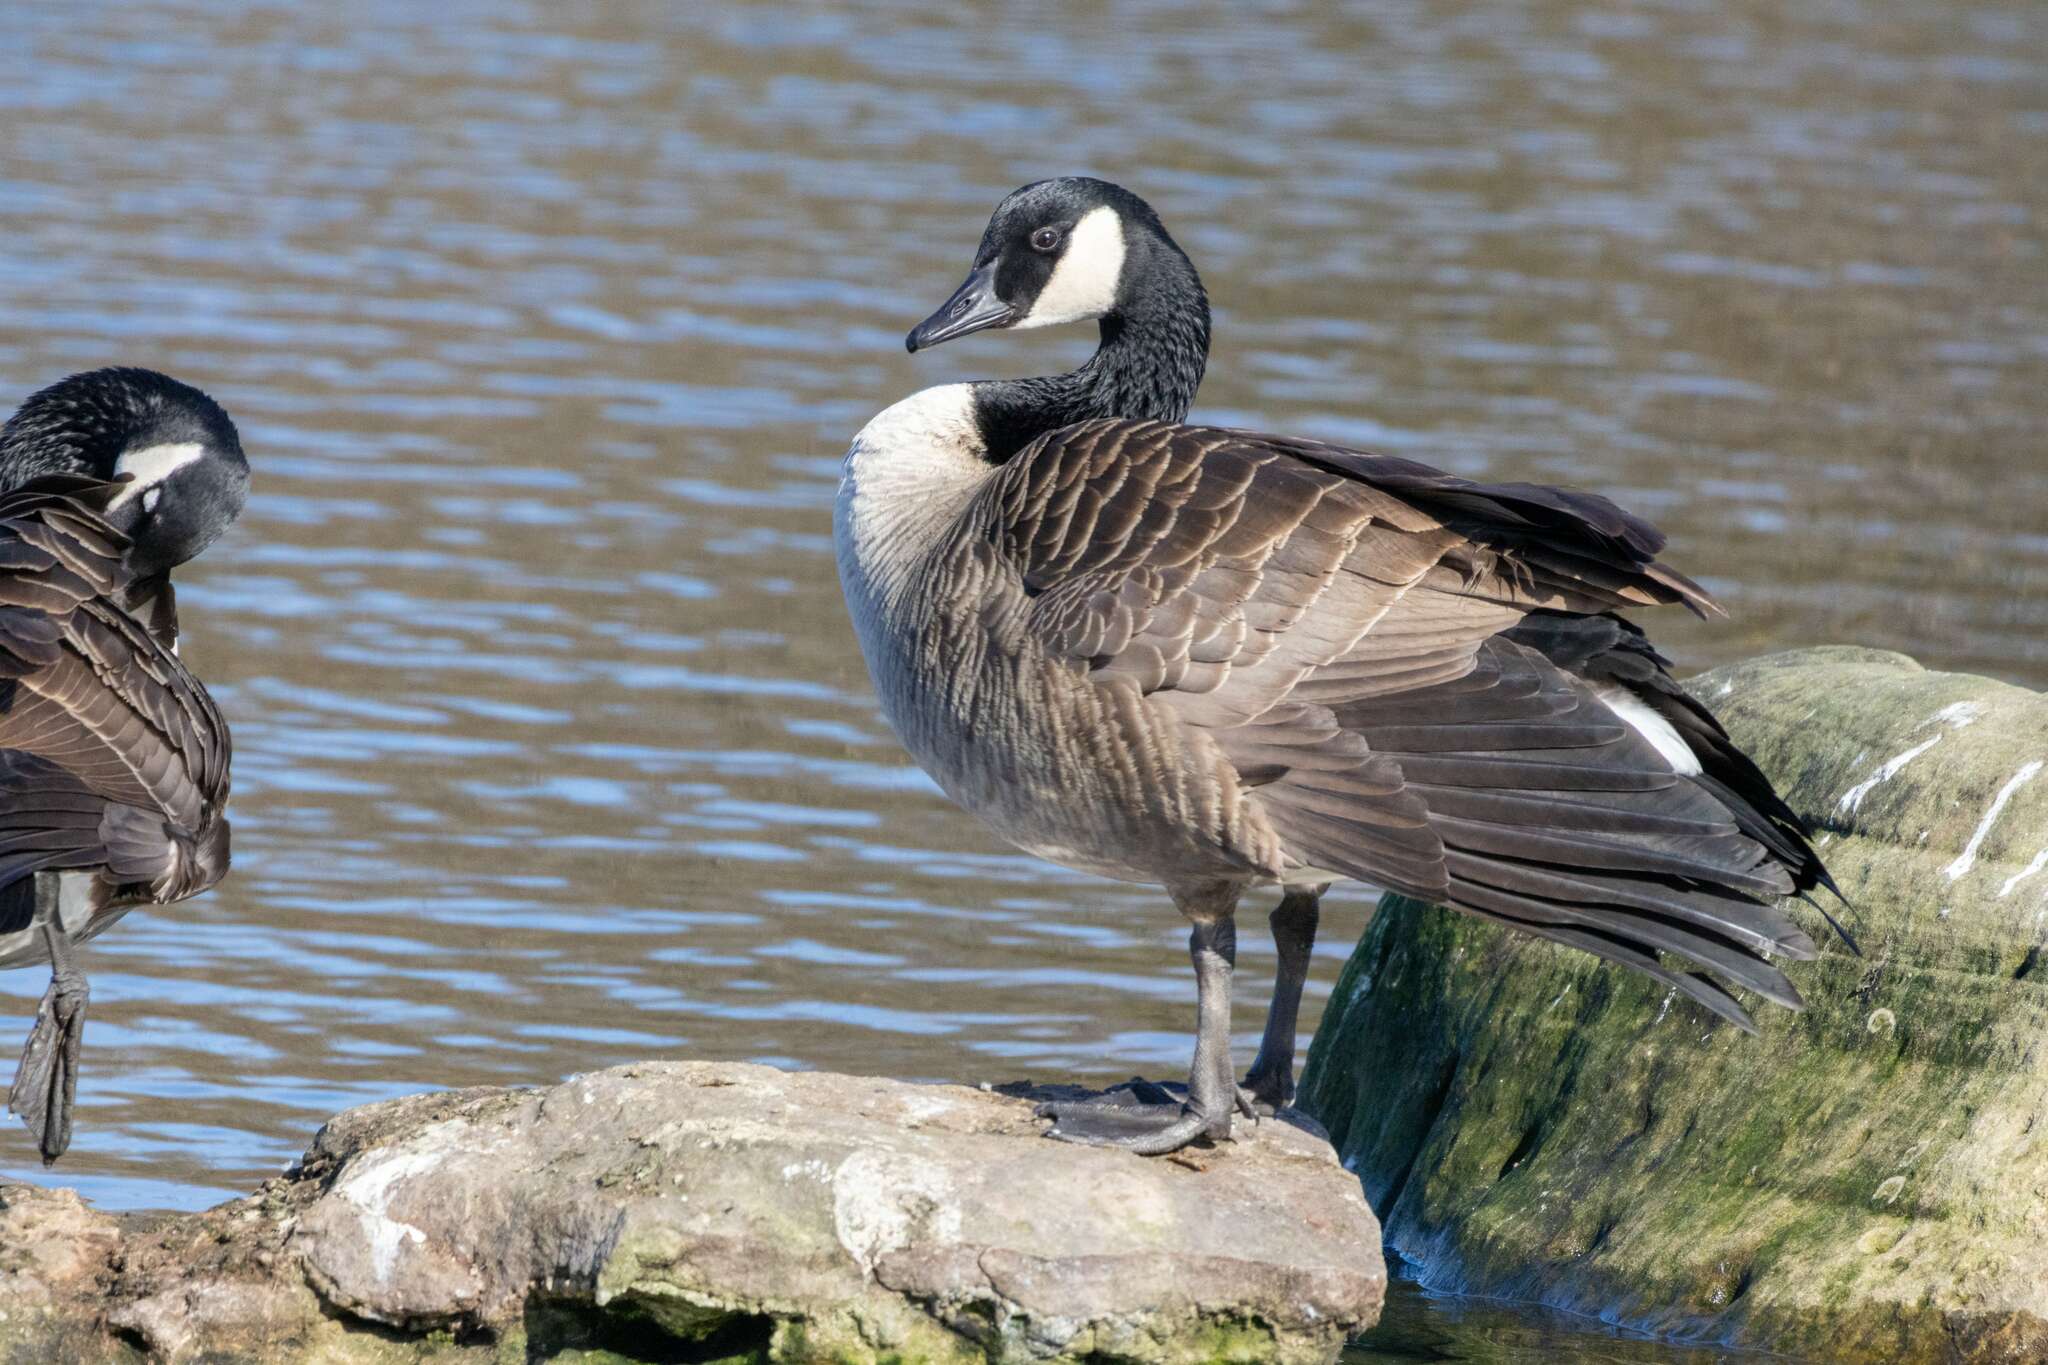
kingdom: Animalia
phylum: Chordata
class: Aves
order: Anseriformes
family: Anatidae
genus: Branta
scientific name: Branta canadensis
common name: Canada goose
